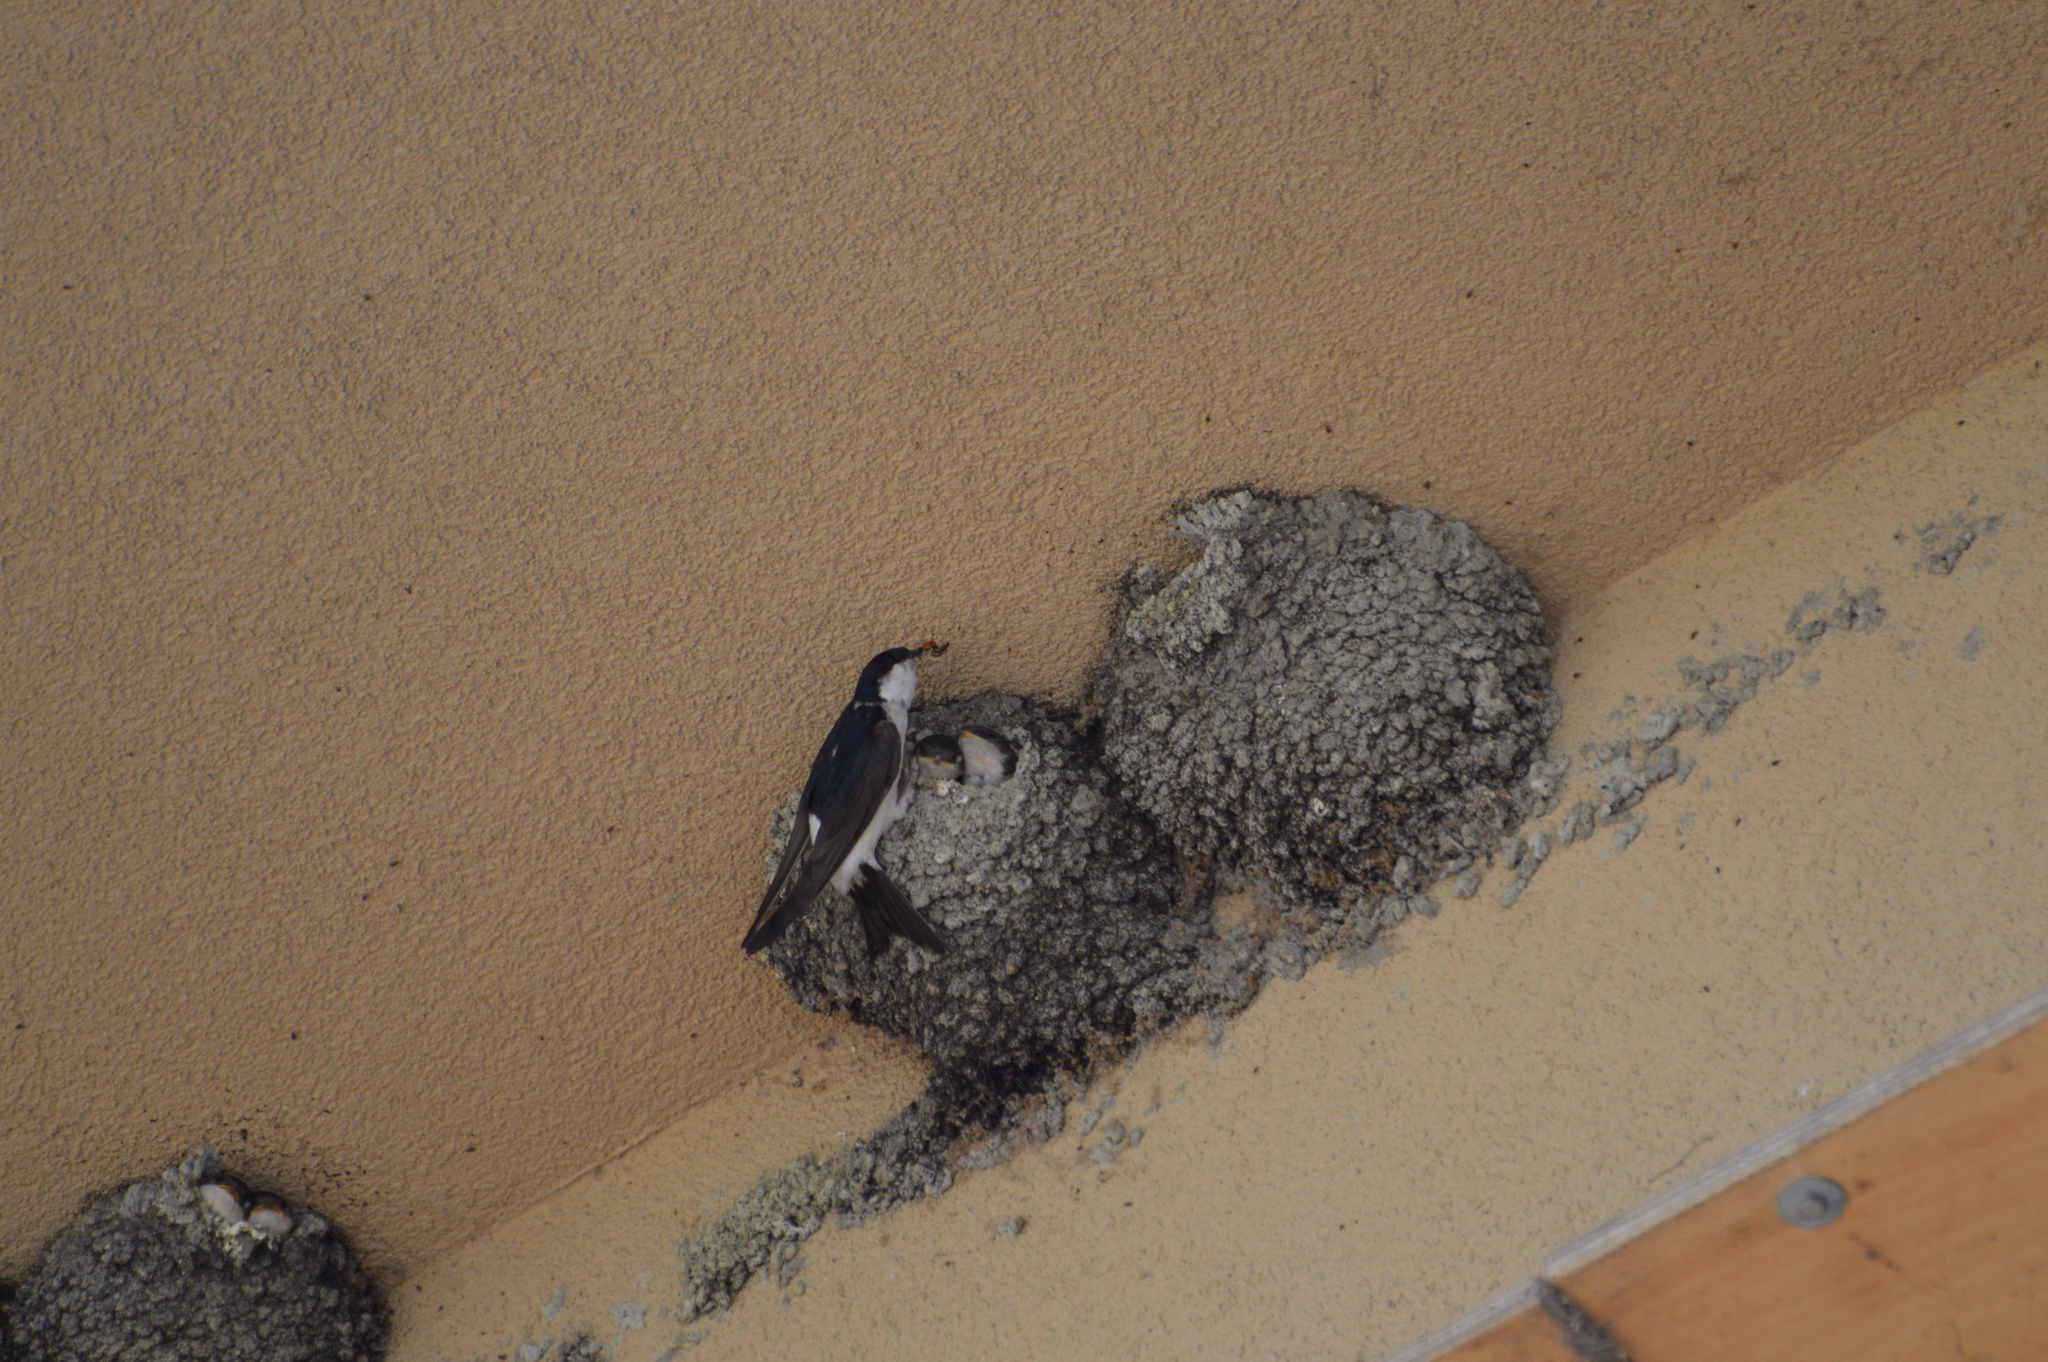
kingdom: Animalia
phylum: Chordata
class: Aves
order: Passeriformes
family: Hirundinidae
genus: Delichon
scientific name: Delichon urbicum
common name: Common house martin
